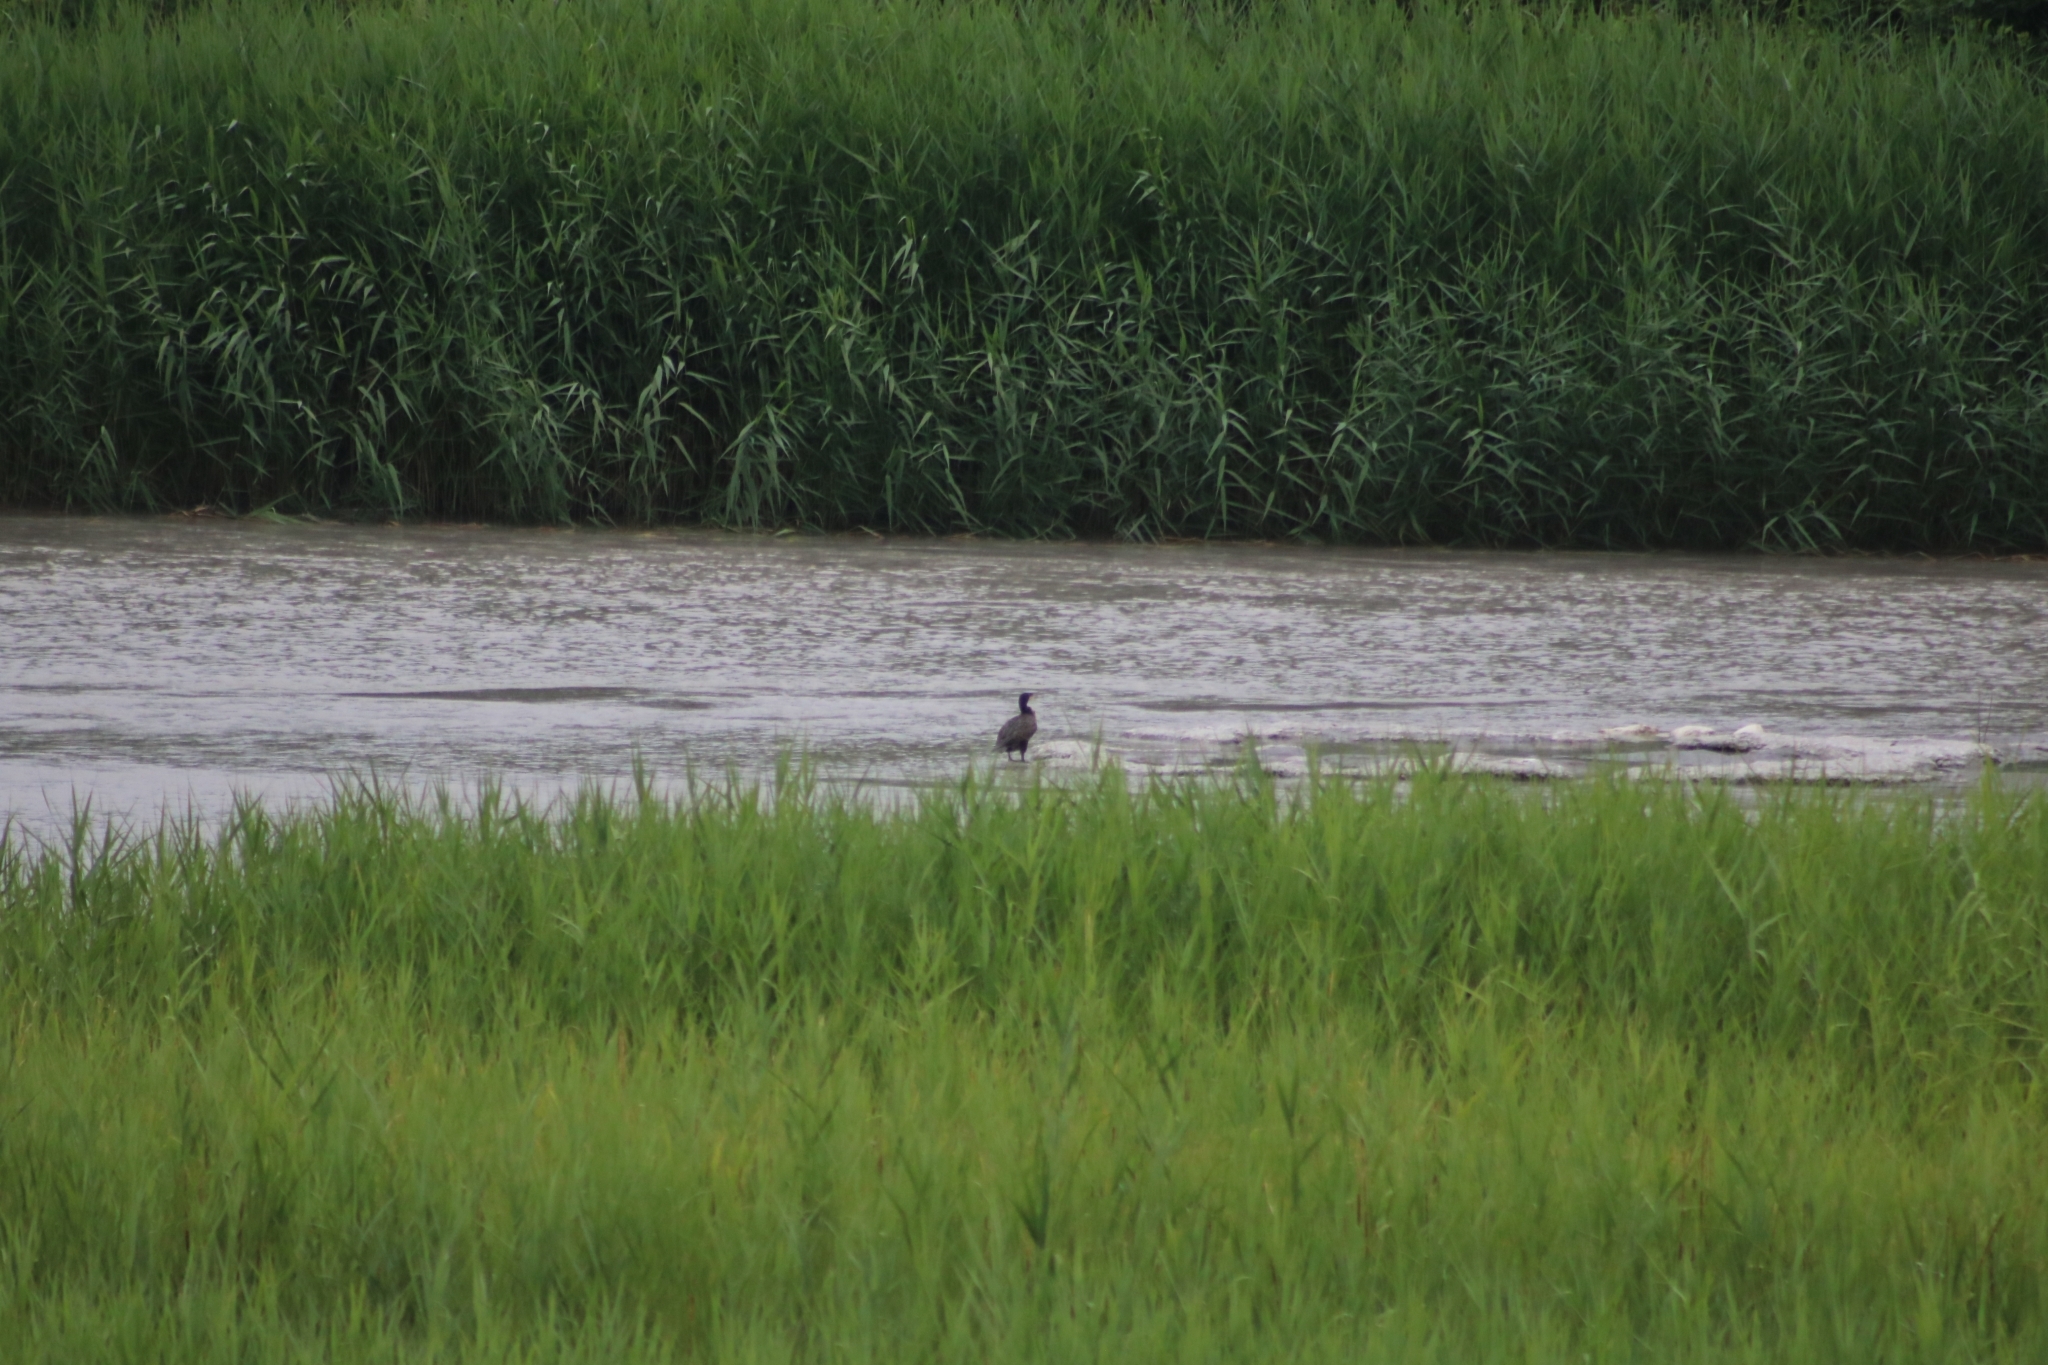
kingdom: Animalia
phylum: Chordata
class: Aves
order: Suliformes
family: Phalacrocoracidae
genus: Phalacrocorax
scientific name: Phalacrocorax carbo
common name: Great cormorant
